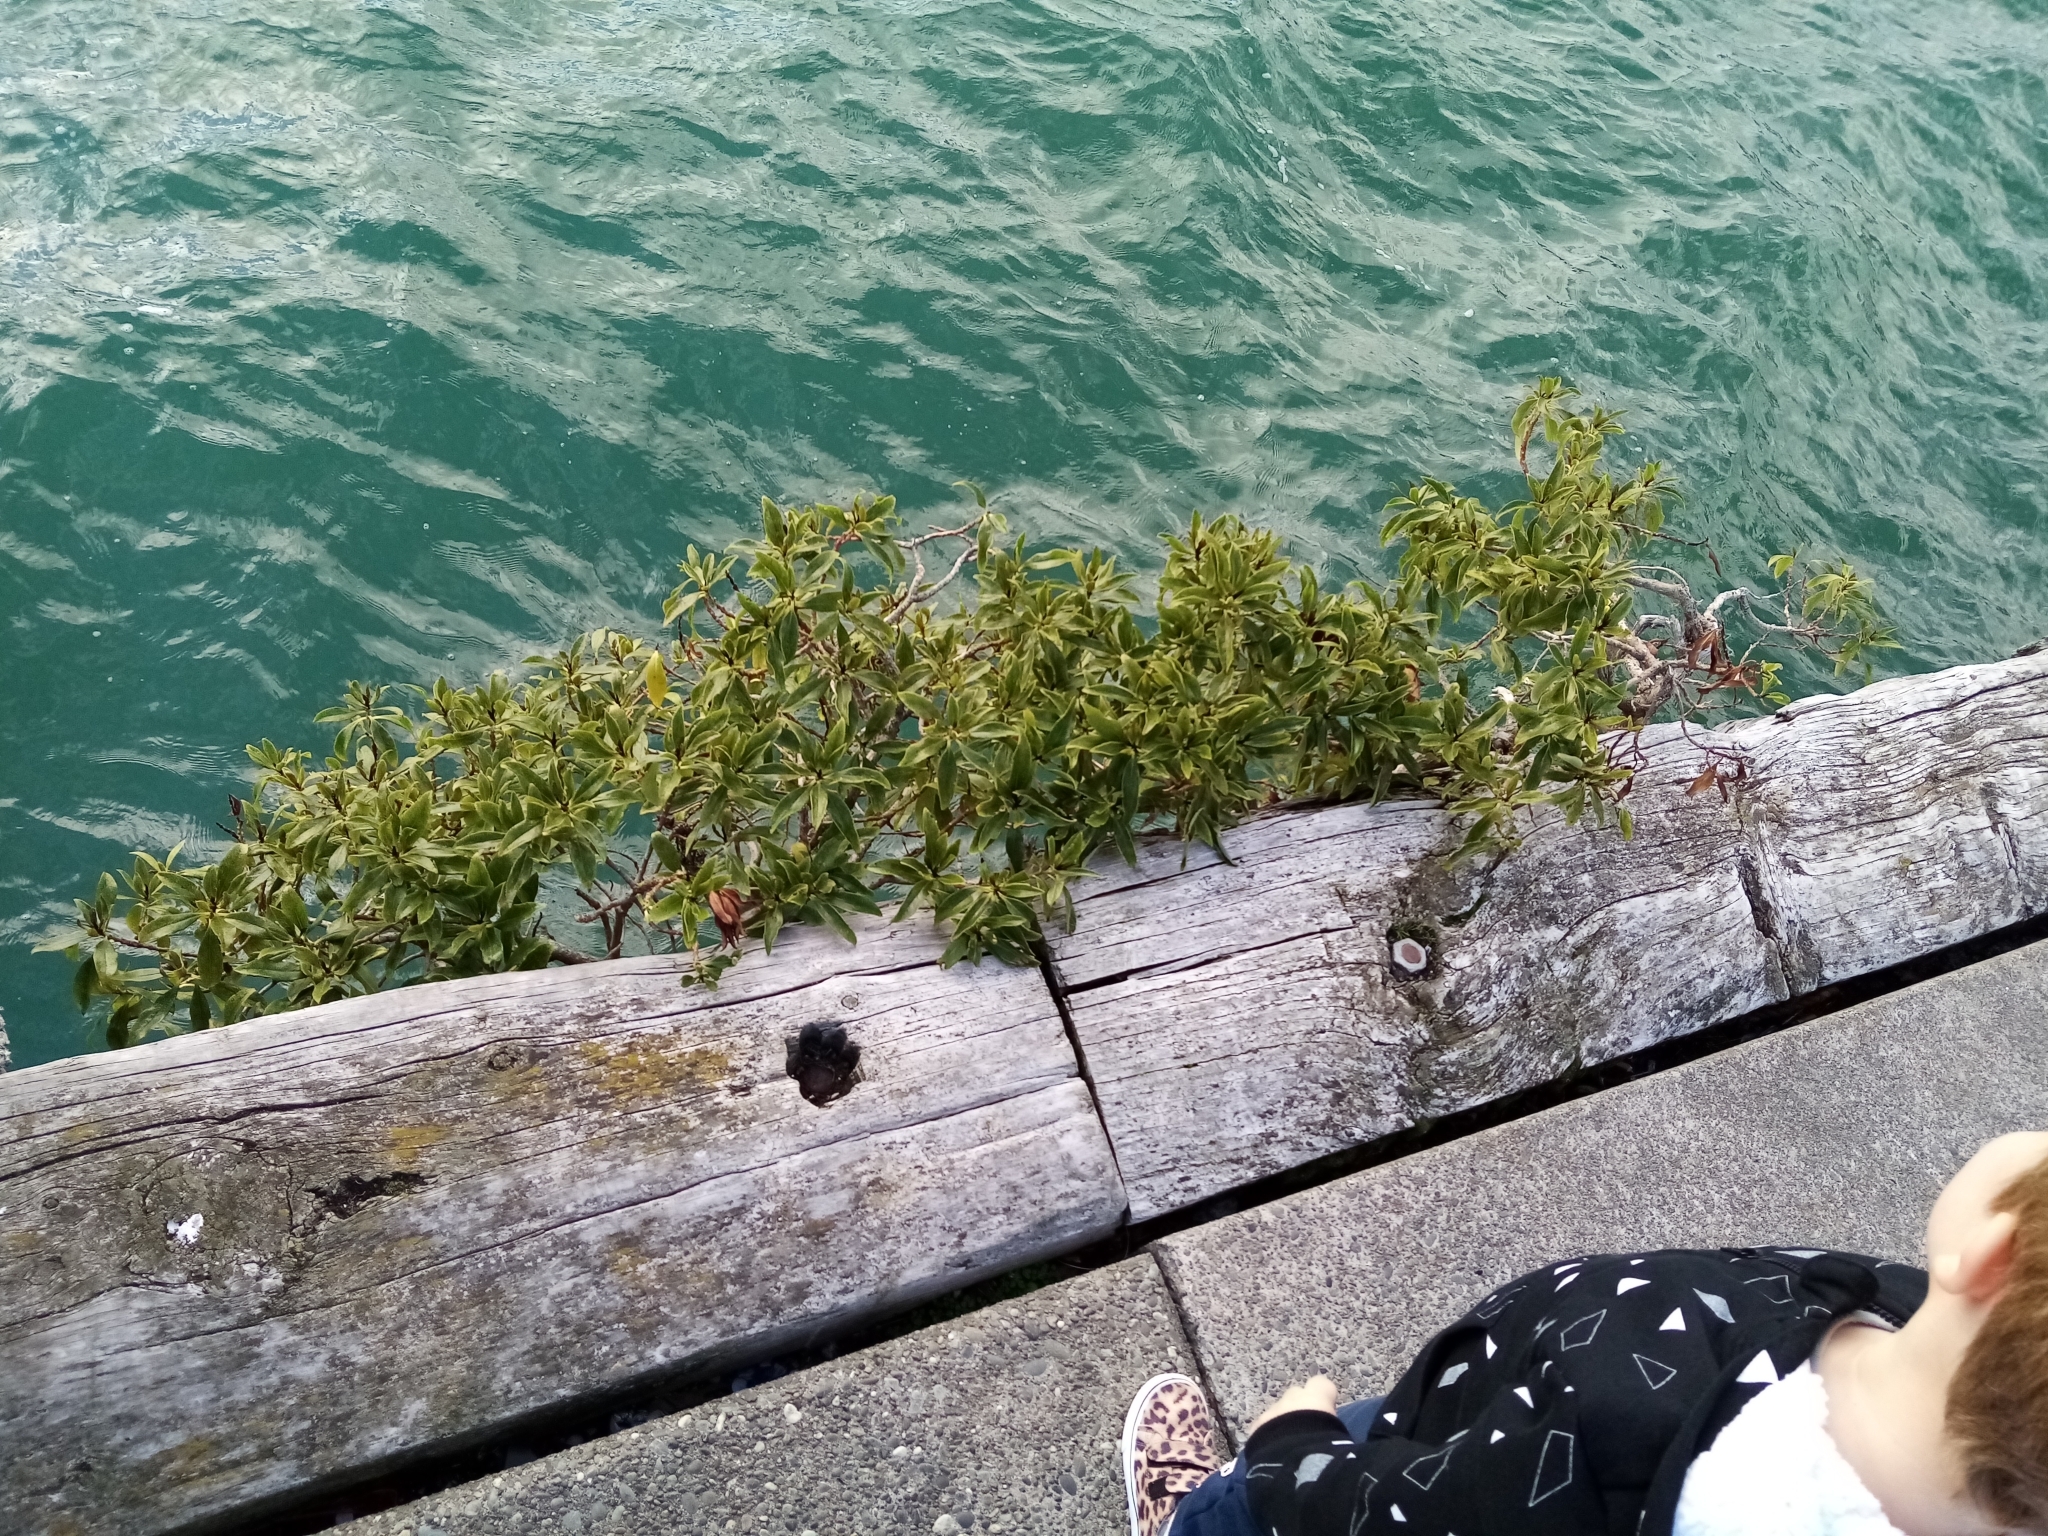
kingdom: Plantae
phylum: Tracheophyta
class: Magnoliopsida
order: Lamiales
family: Scrophulariaceae
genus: Myoporum
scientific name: Myoporum laetum
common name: Ngaio tree
